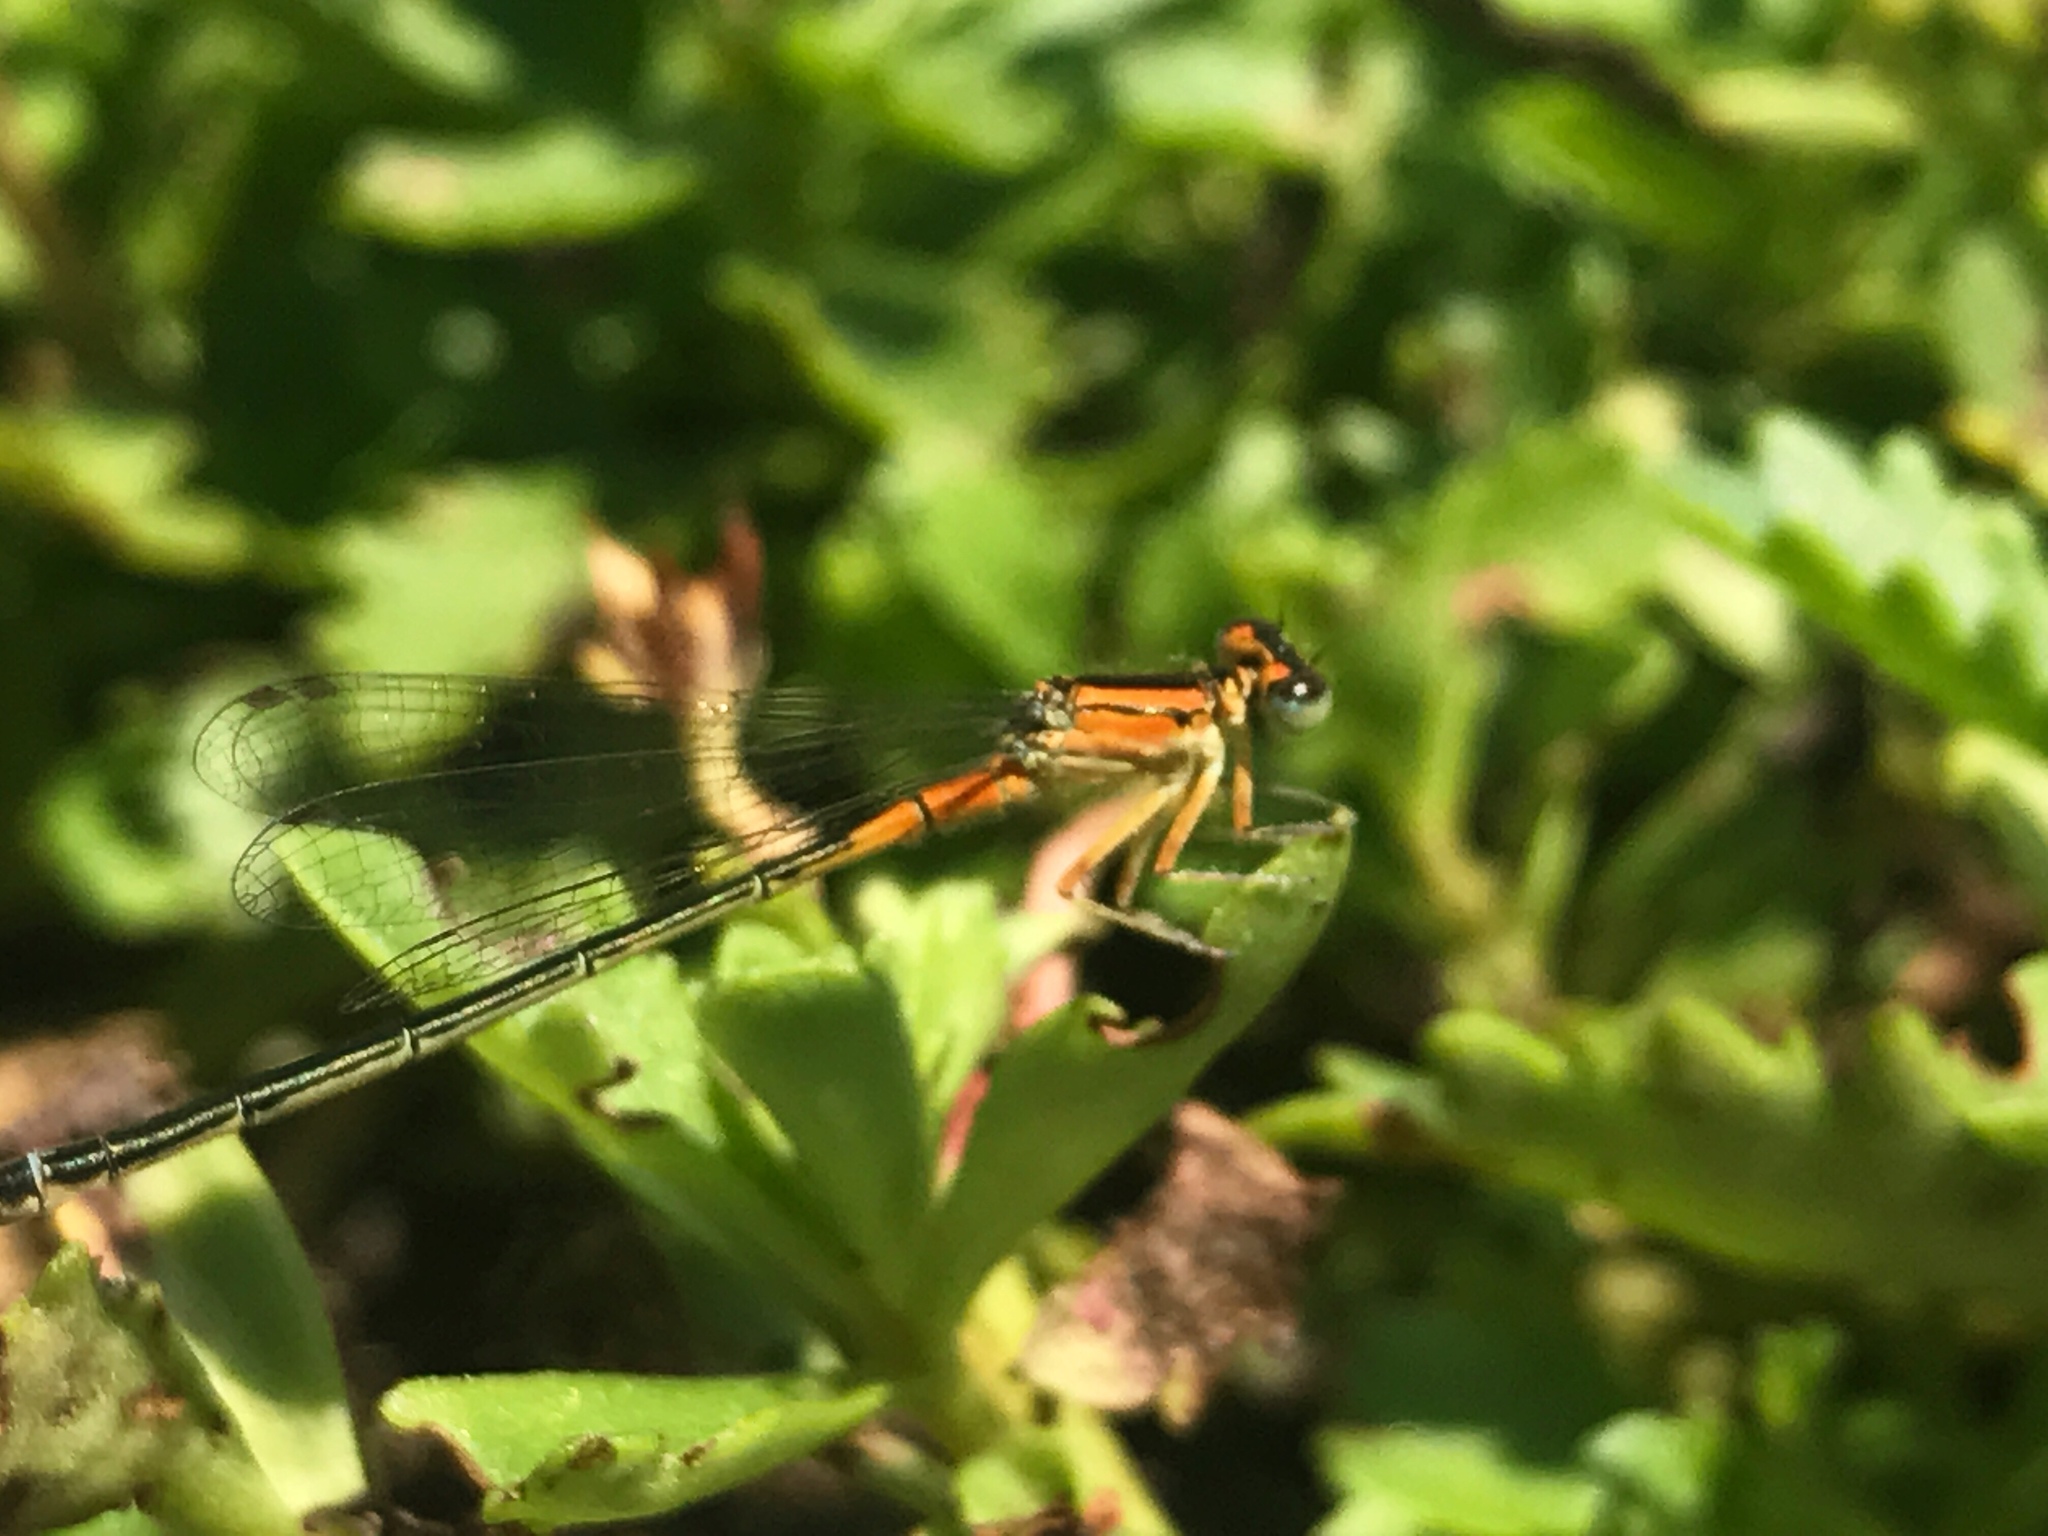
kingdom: Animalia
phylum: Arthropoda
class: Insecta
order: Odonata
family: Coenagrionidae
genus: Ischnura
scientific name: Ischnura verticalis
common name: Eastern forktail
